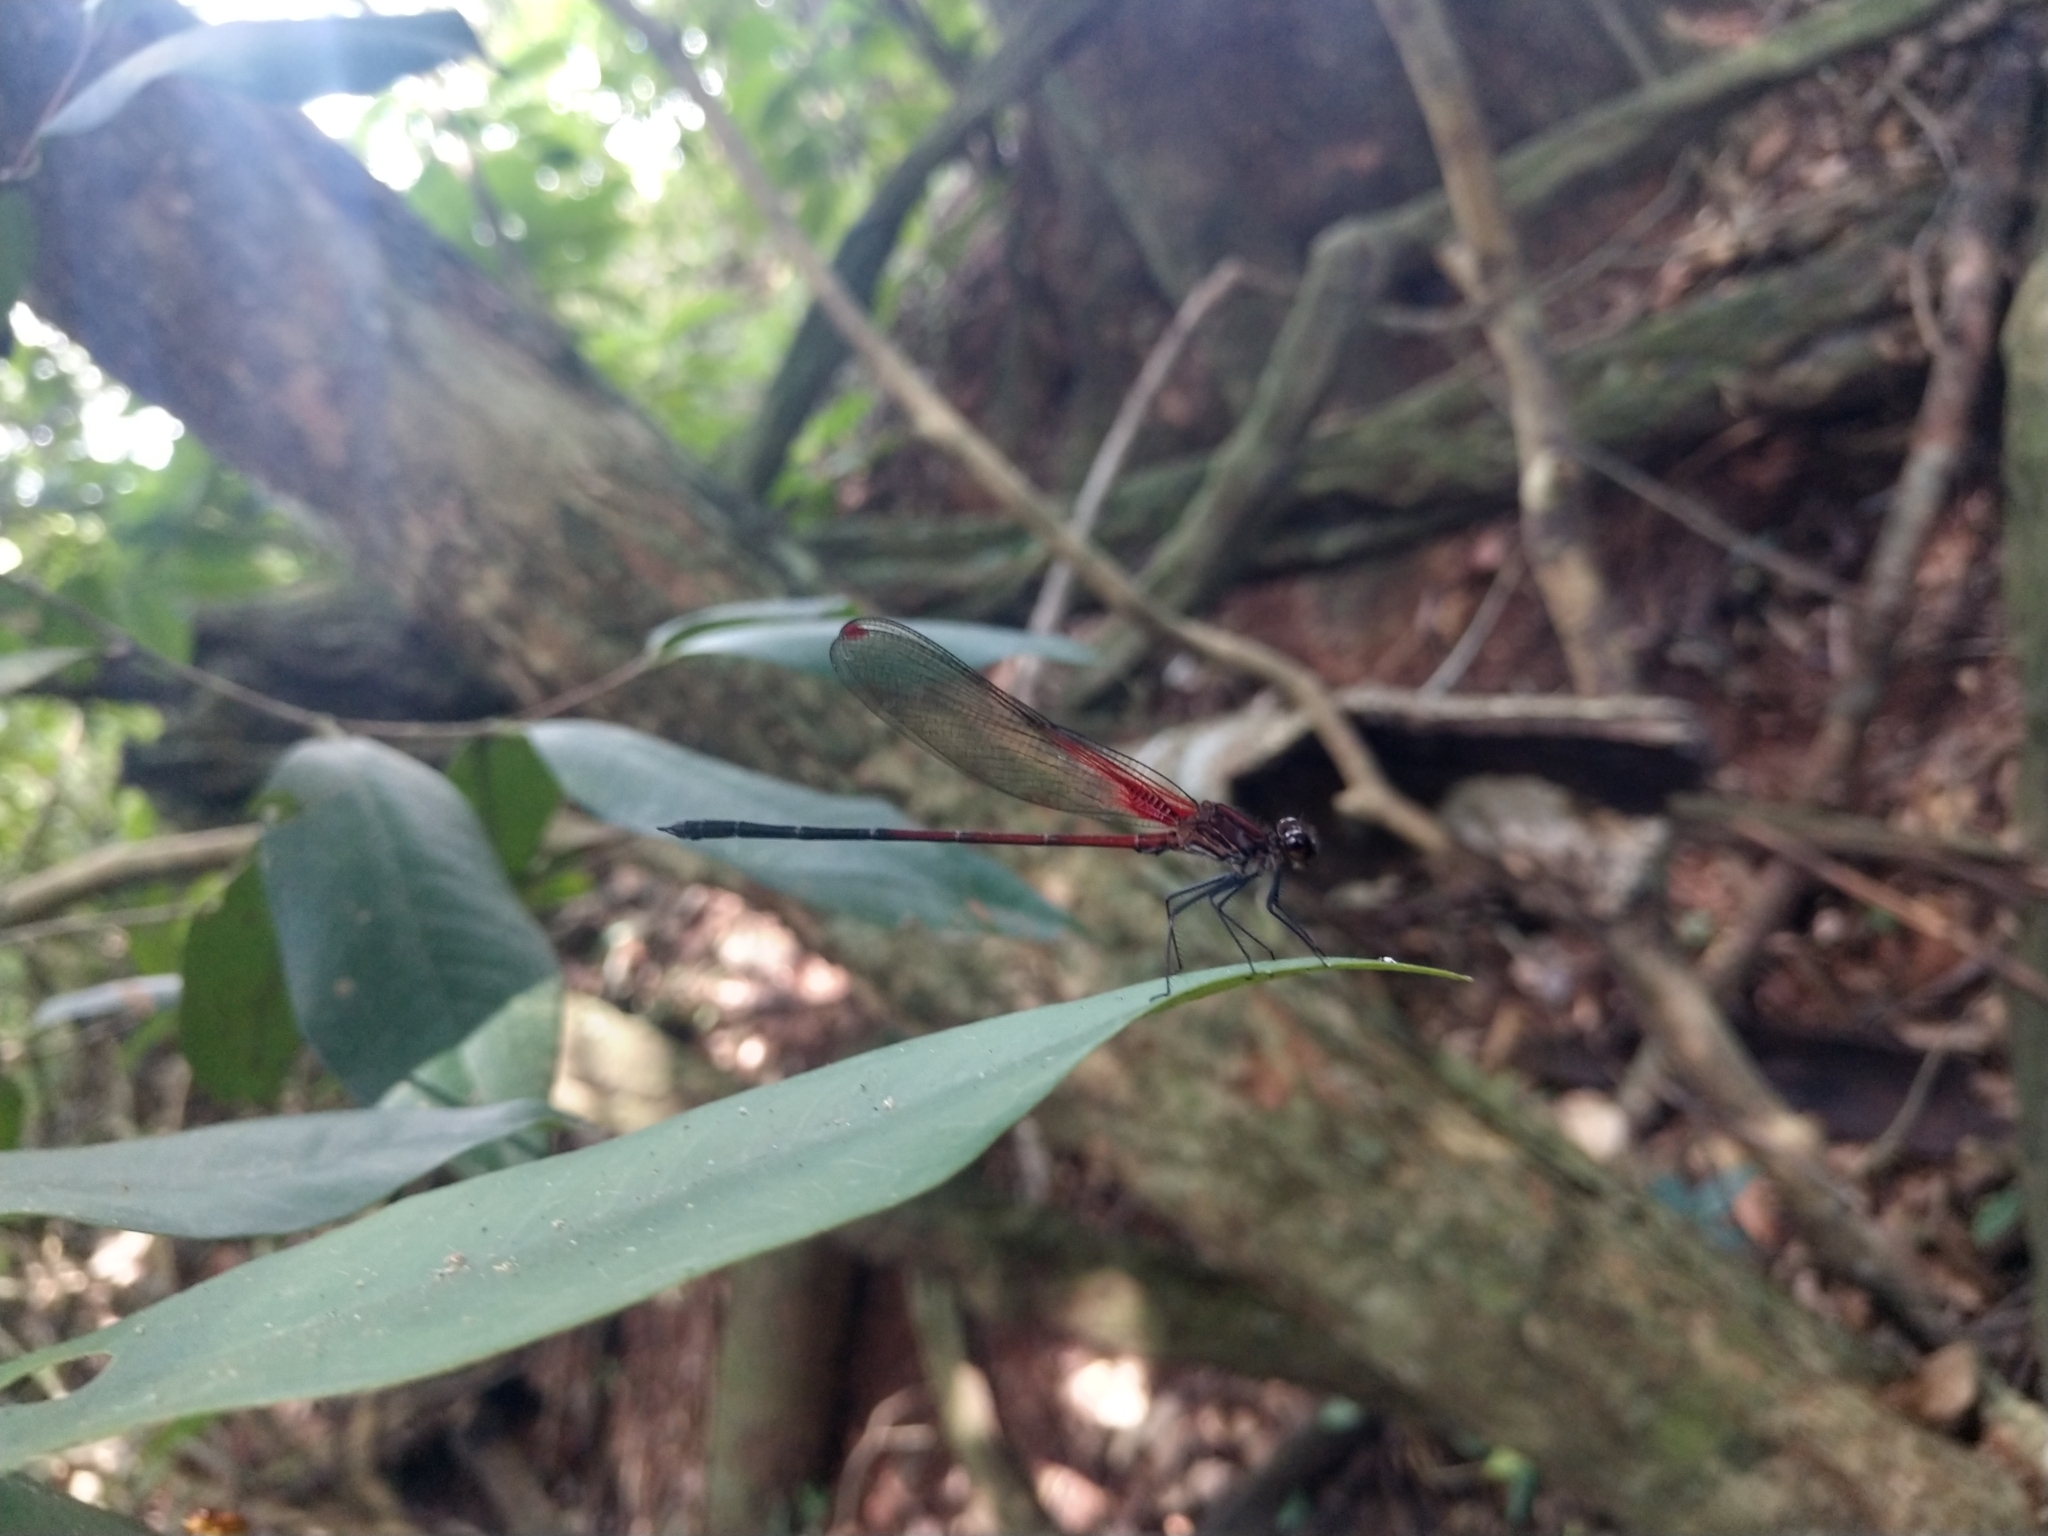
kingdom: Animalia
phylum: Arthropoda
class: Insecta
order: Odonata
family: Calopterygidae
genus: Hetaerina
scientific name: Hetaerina rosea
